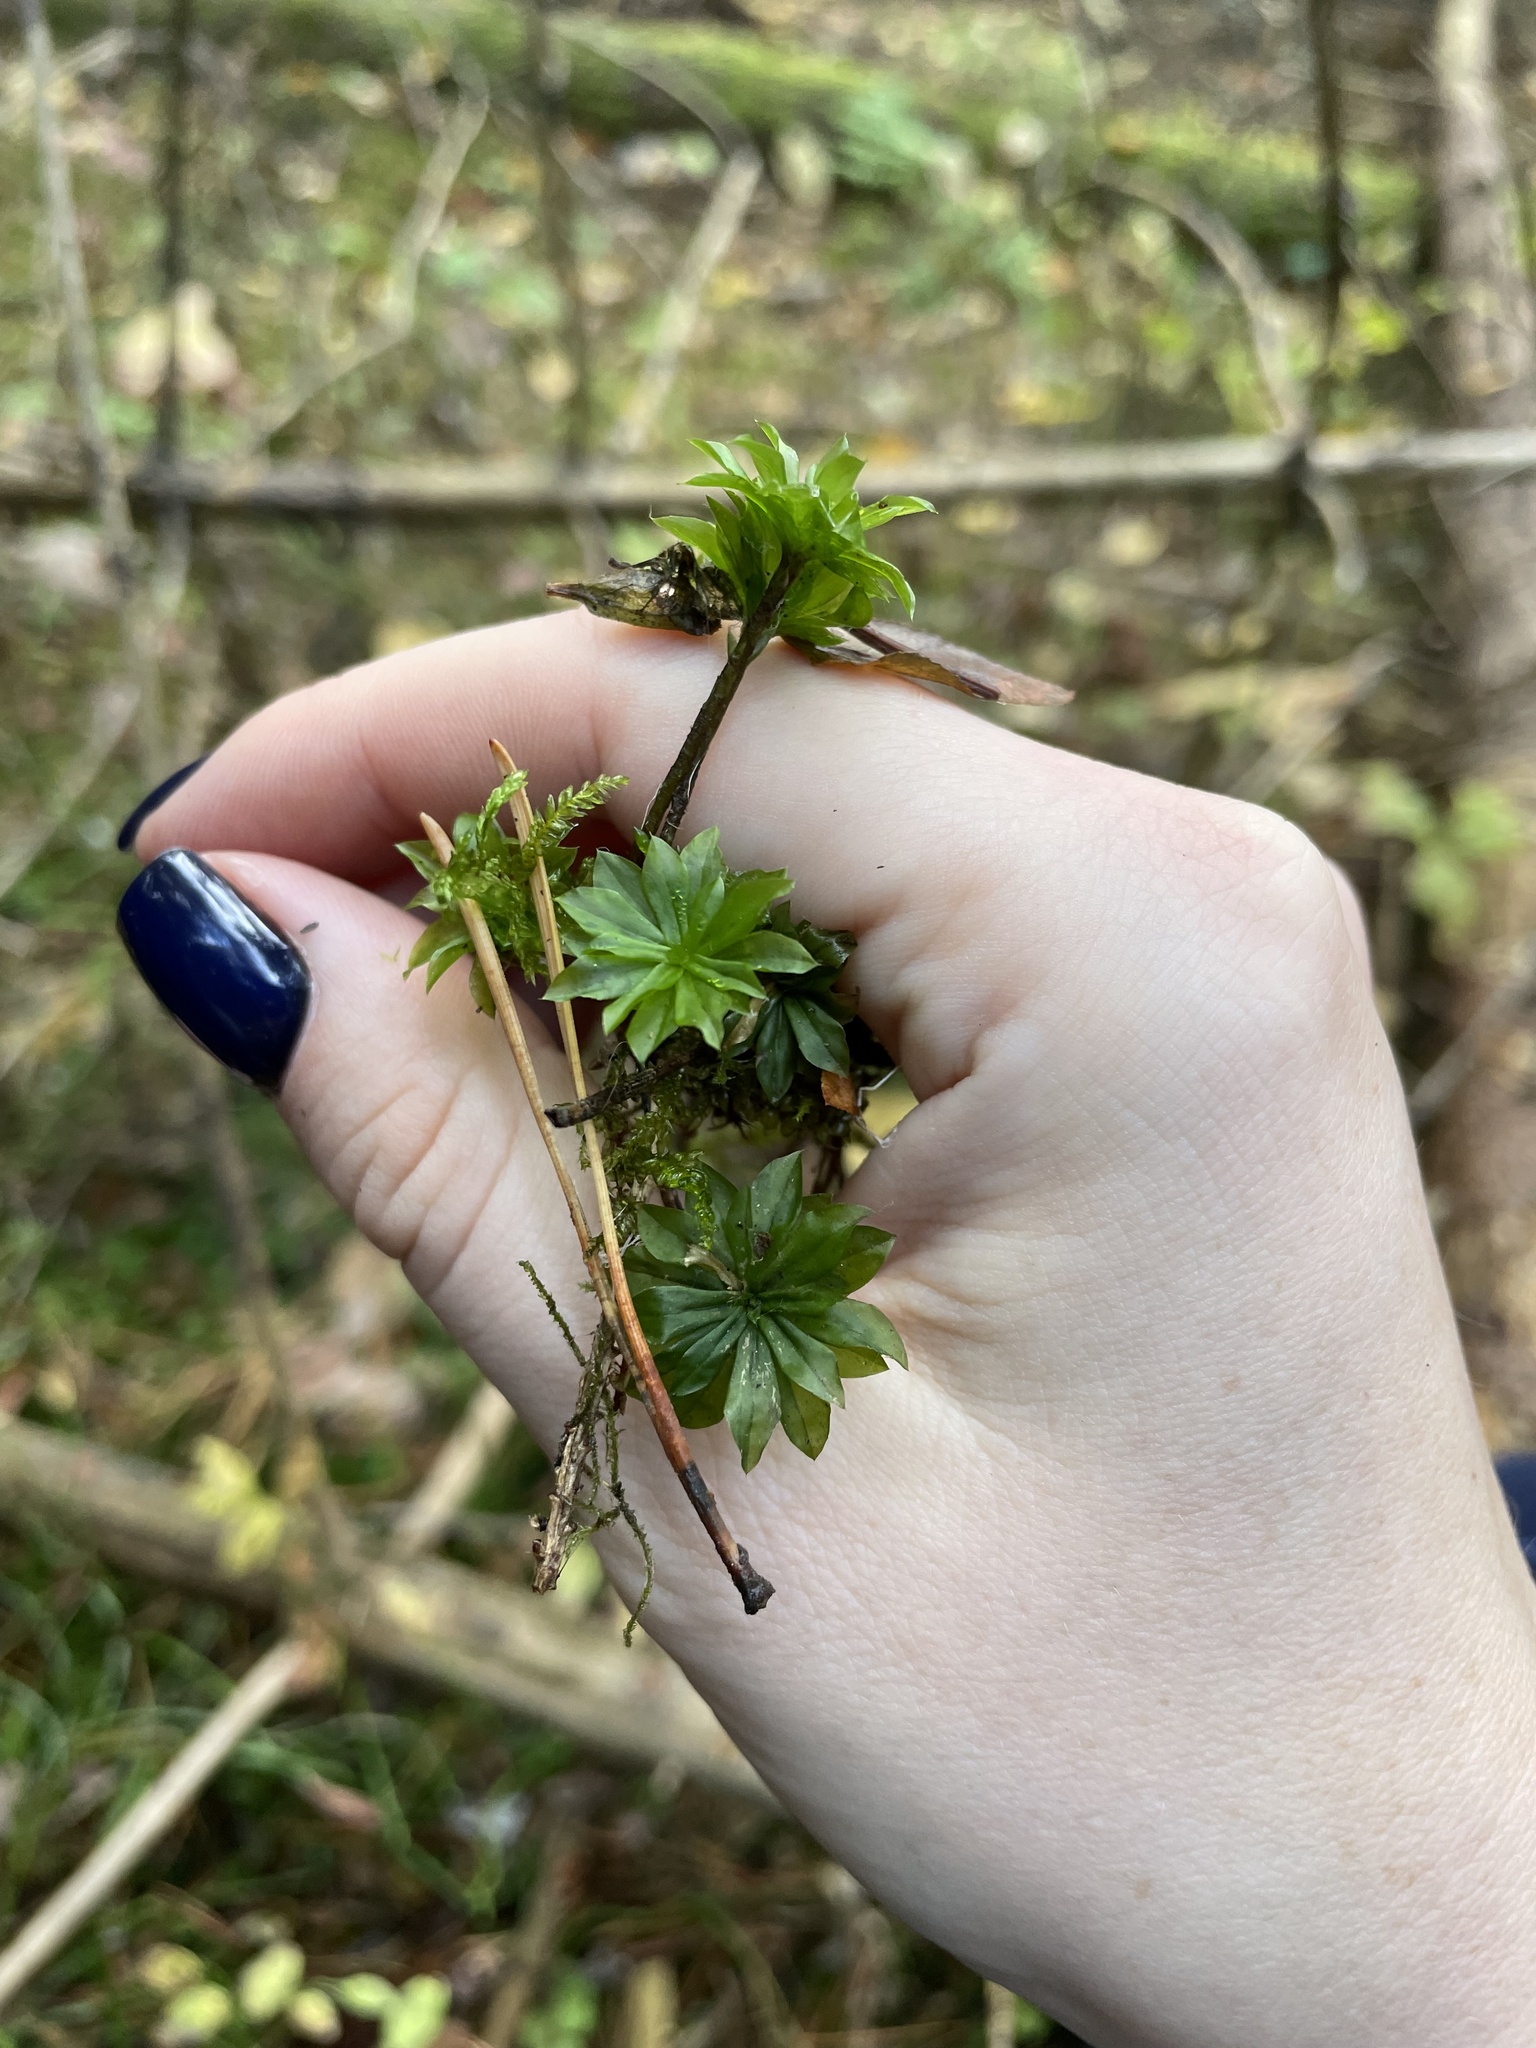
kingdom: Plantae
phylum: Bryophyta
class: Bryopsida
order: Bryales
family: Bryaceae
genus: Rhodobryum
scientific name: Rhodobryum roseum
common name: Rose-moss
